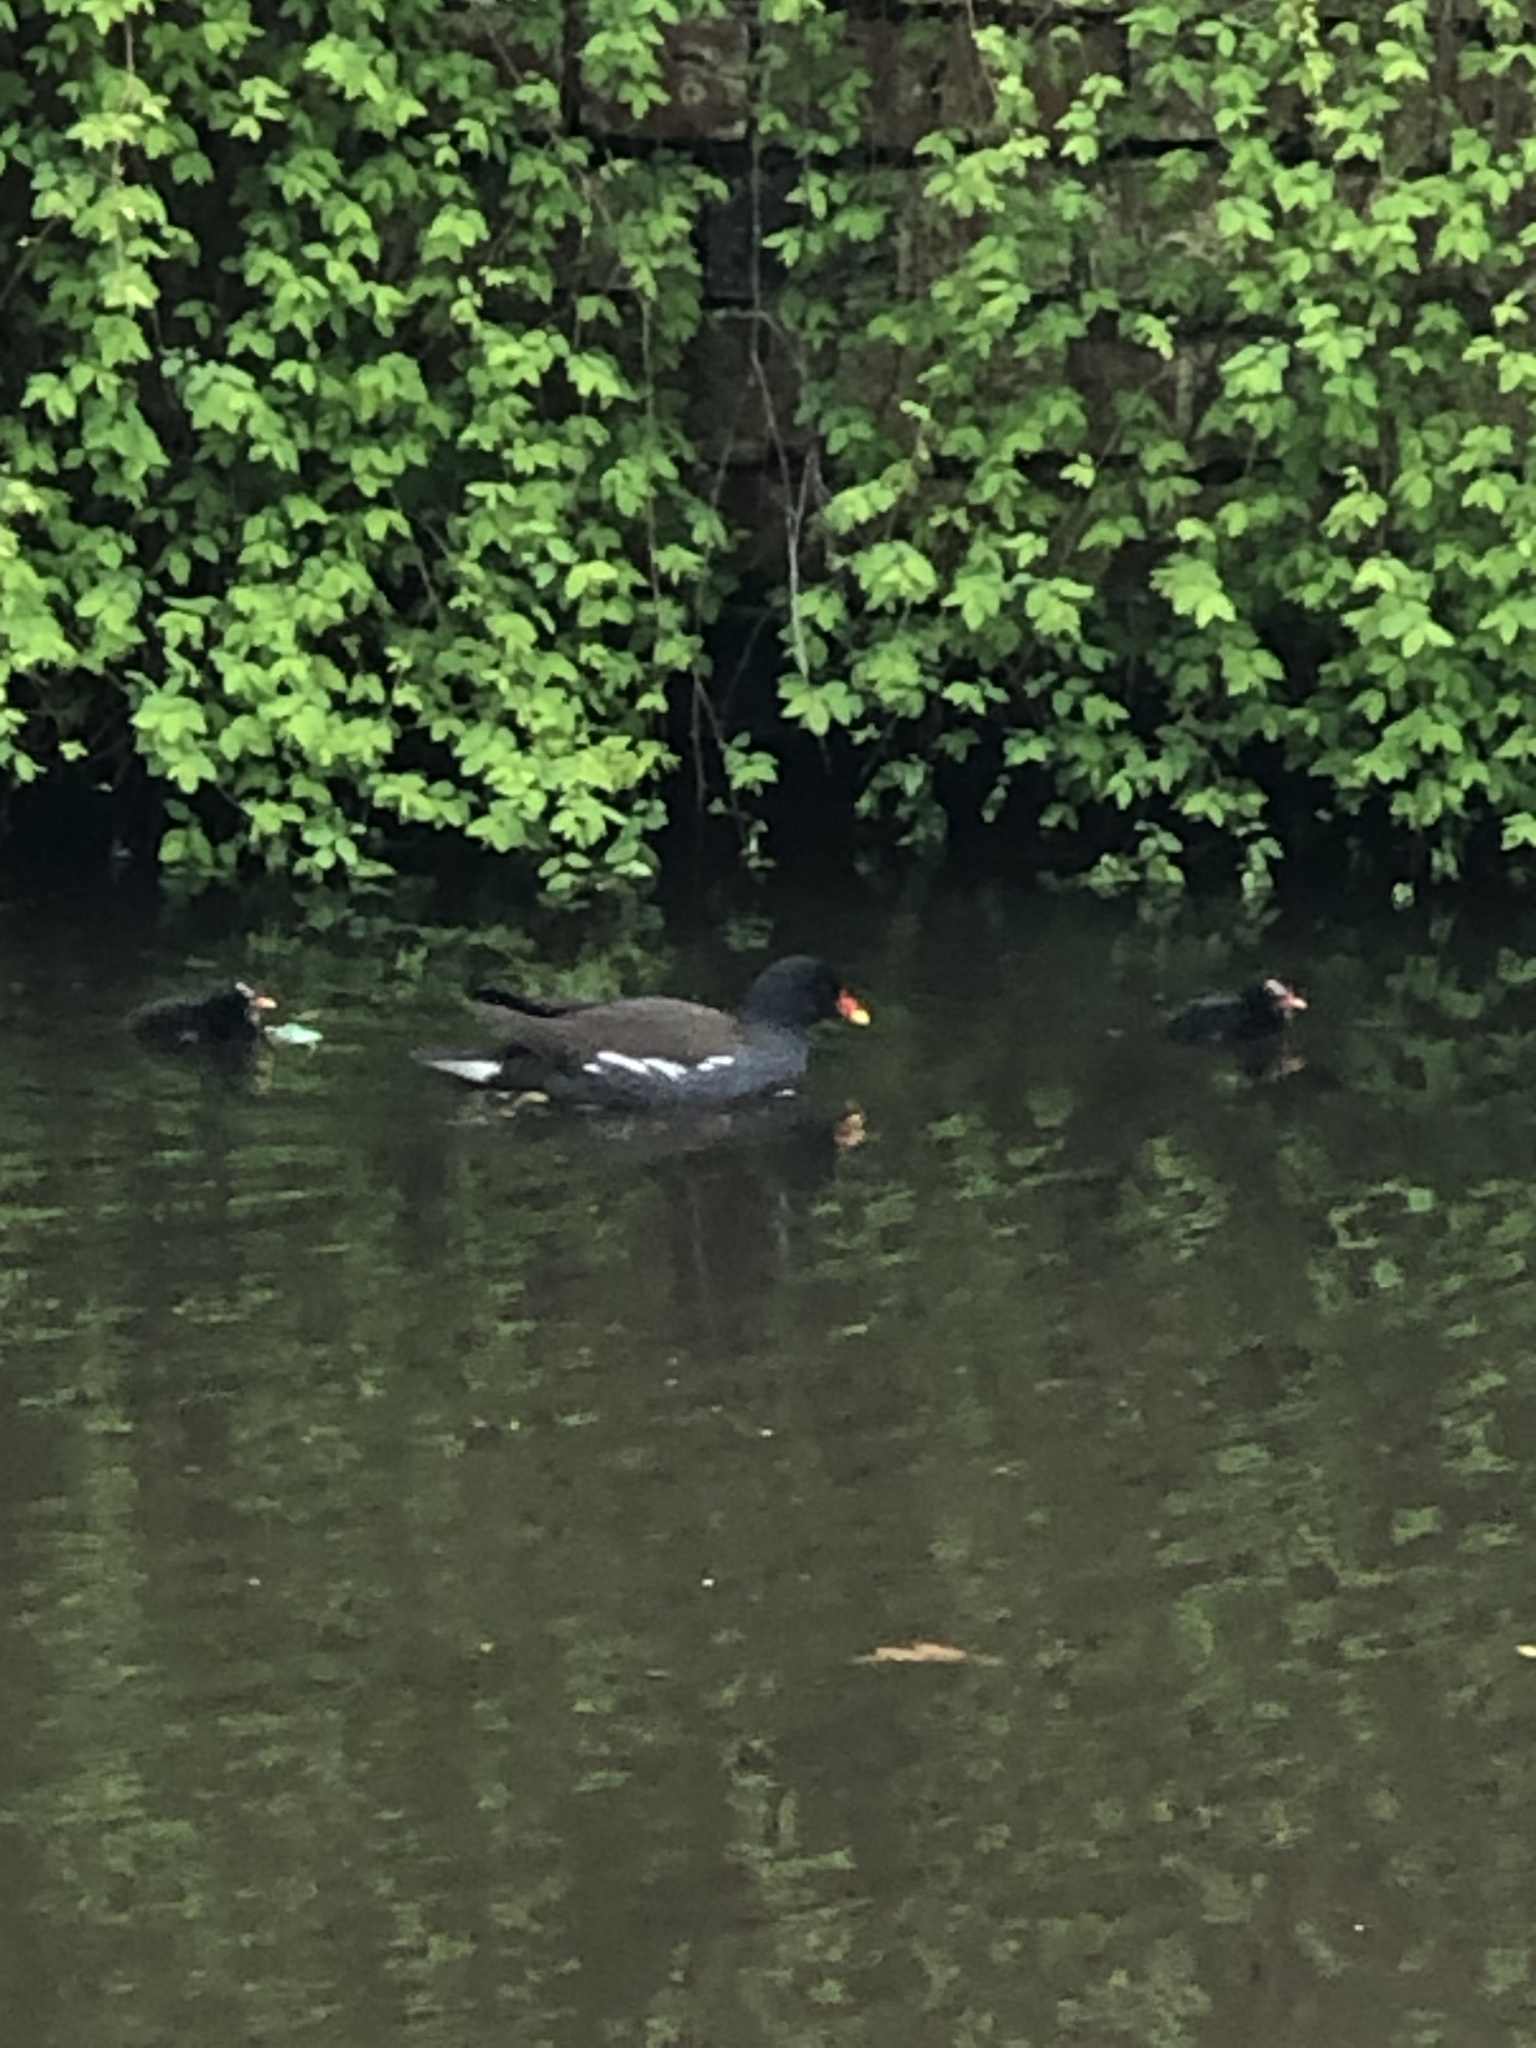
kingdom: Animalia
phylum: Chordata
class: Aves
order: Gruiformes
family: Rallidae
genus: Gallinula
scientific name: Gallinula chloropus
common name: Common moorhen
